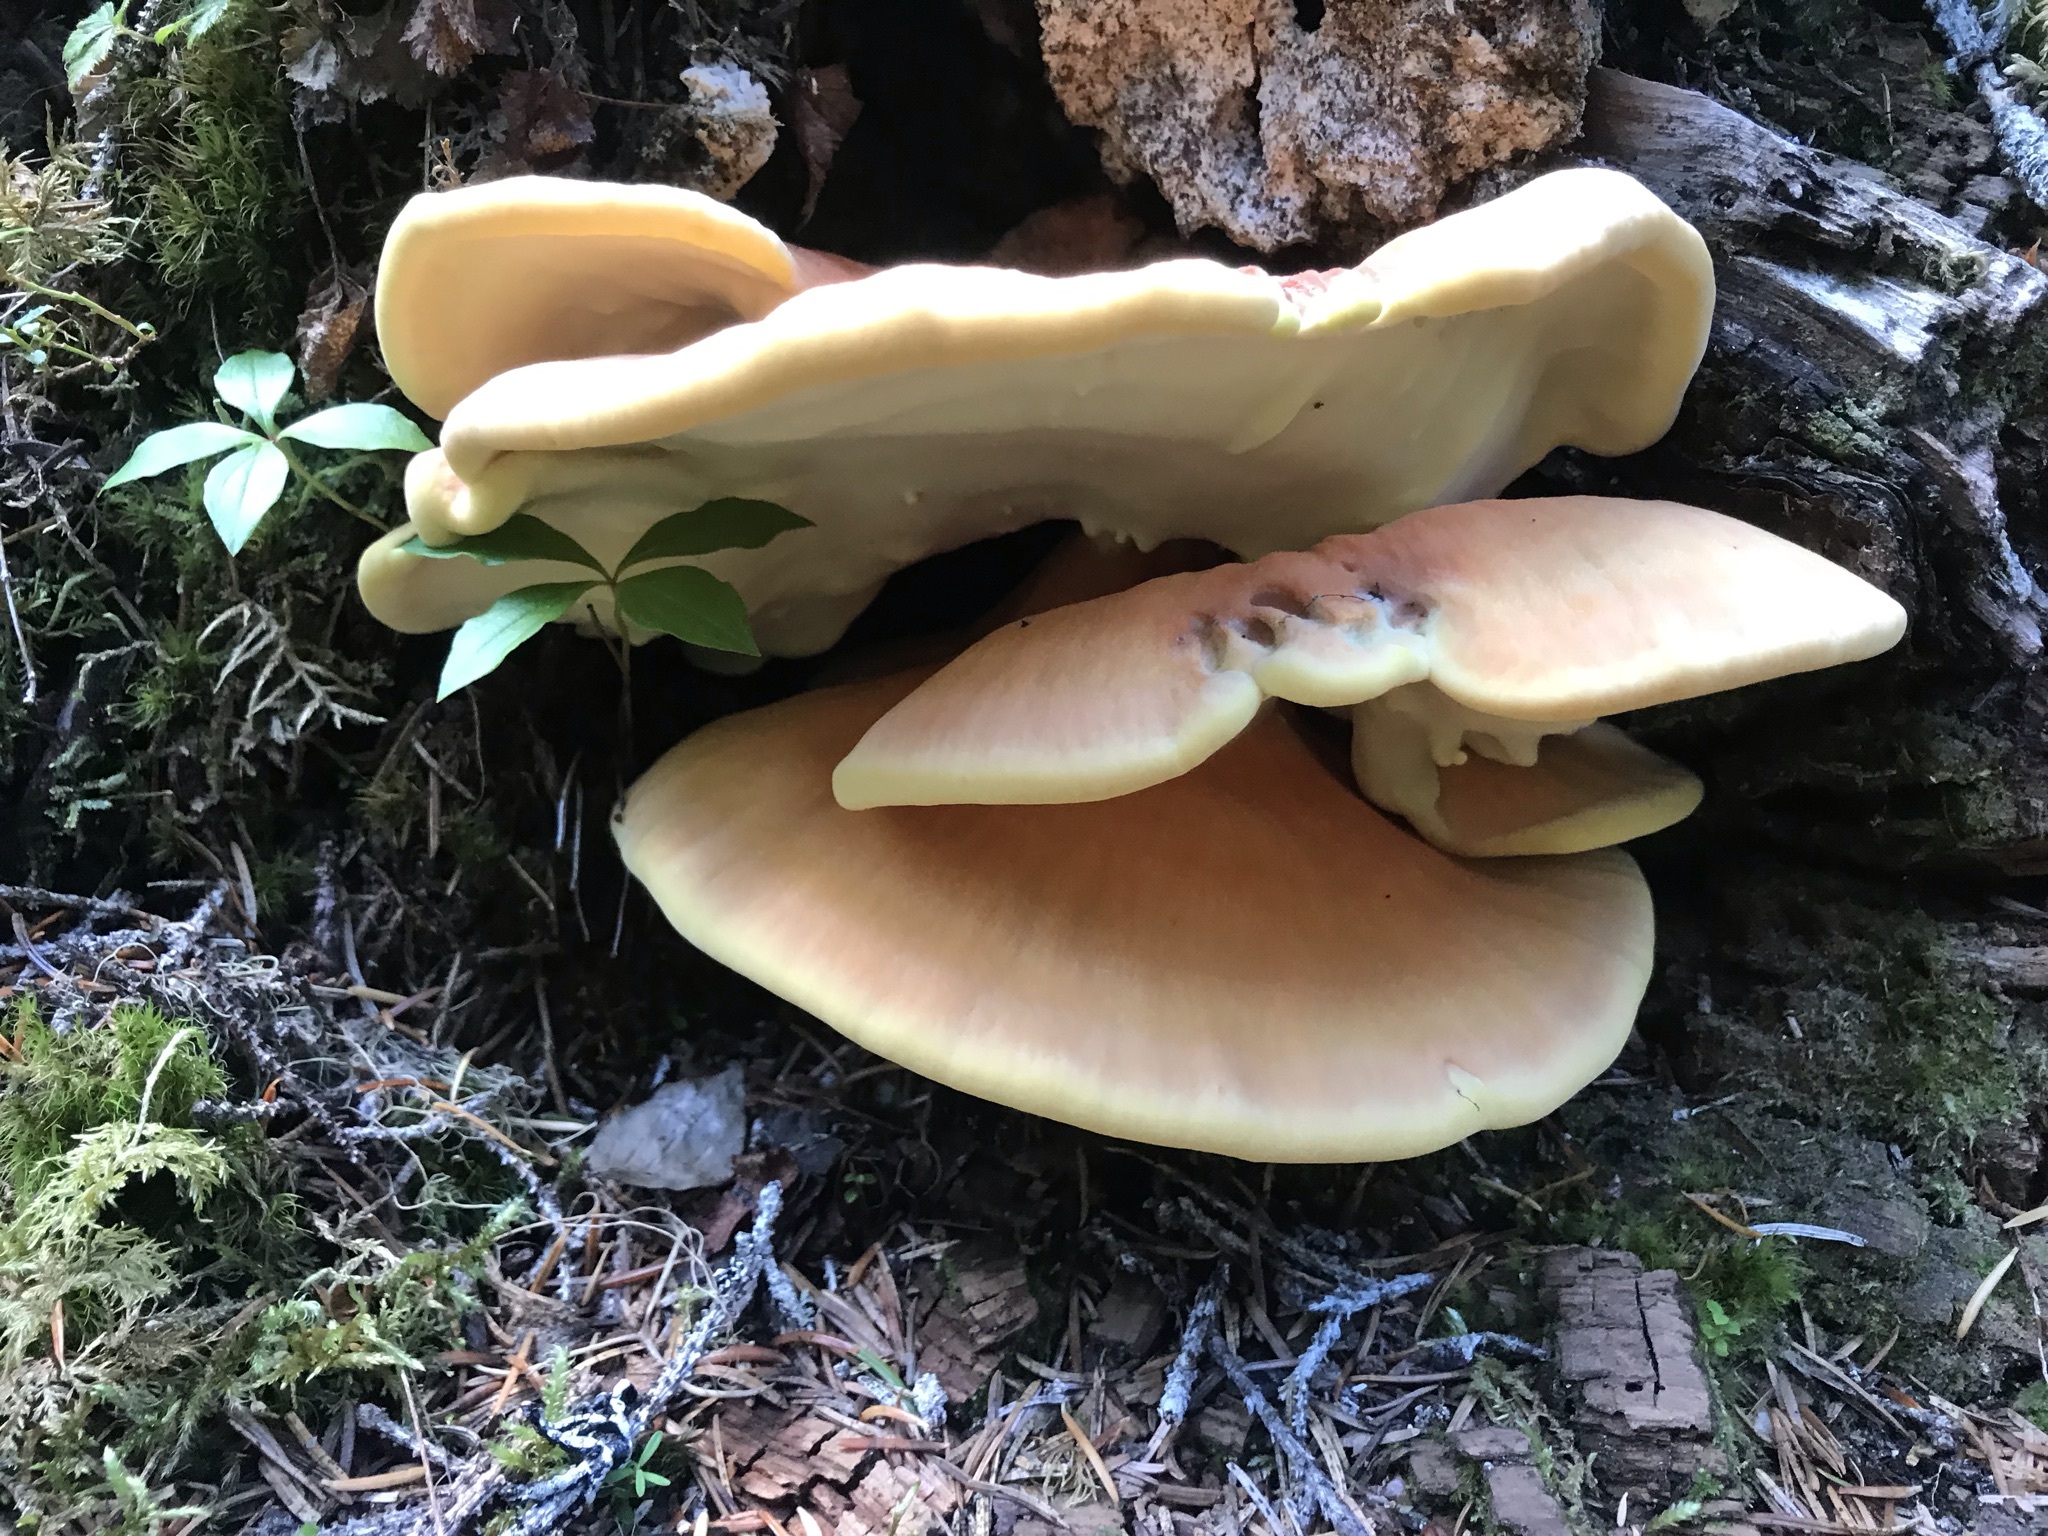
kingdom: Fungi
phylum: Basidiomycota
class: Agaricomycetes
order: Polyporales
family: Laetiporaceae
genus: Laetiporus
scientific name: Laetiporus conifericola
